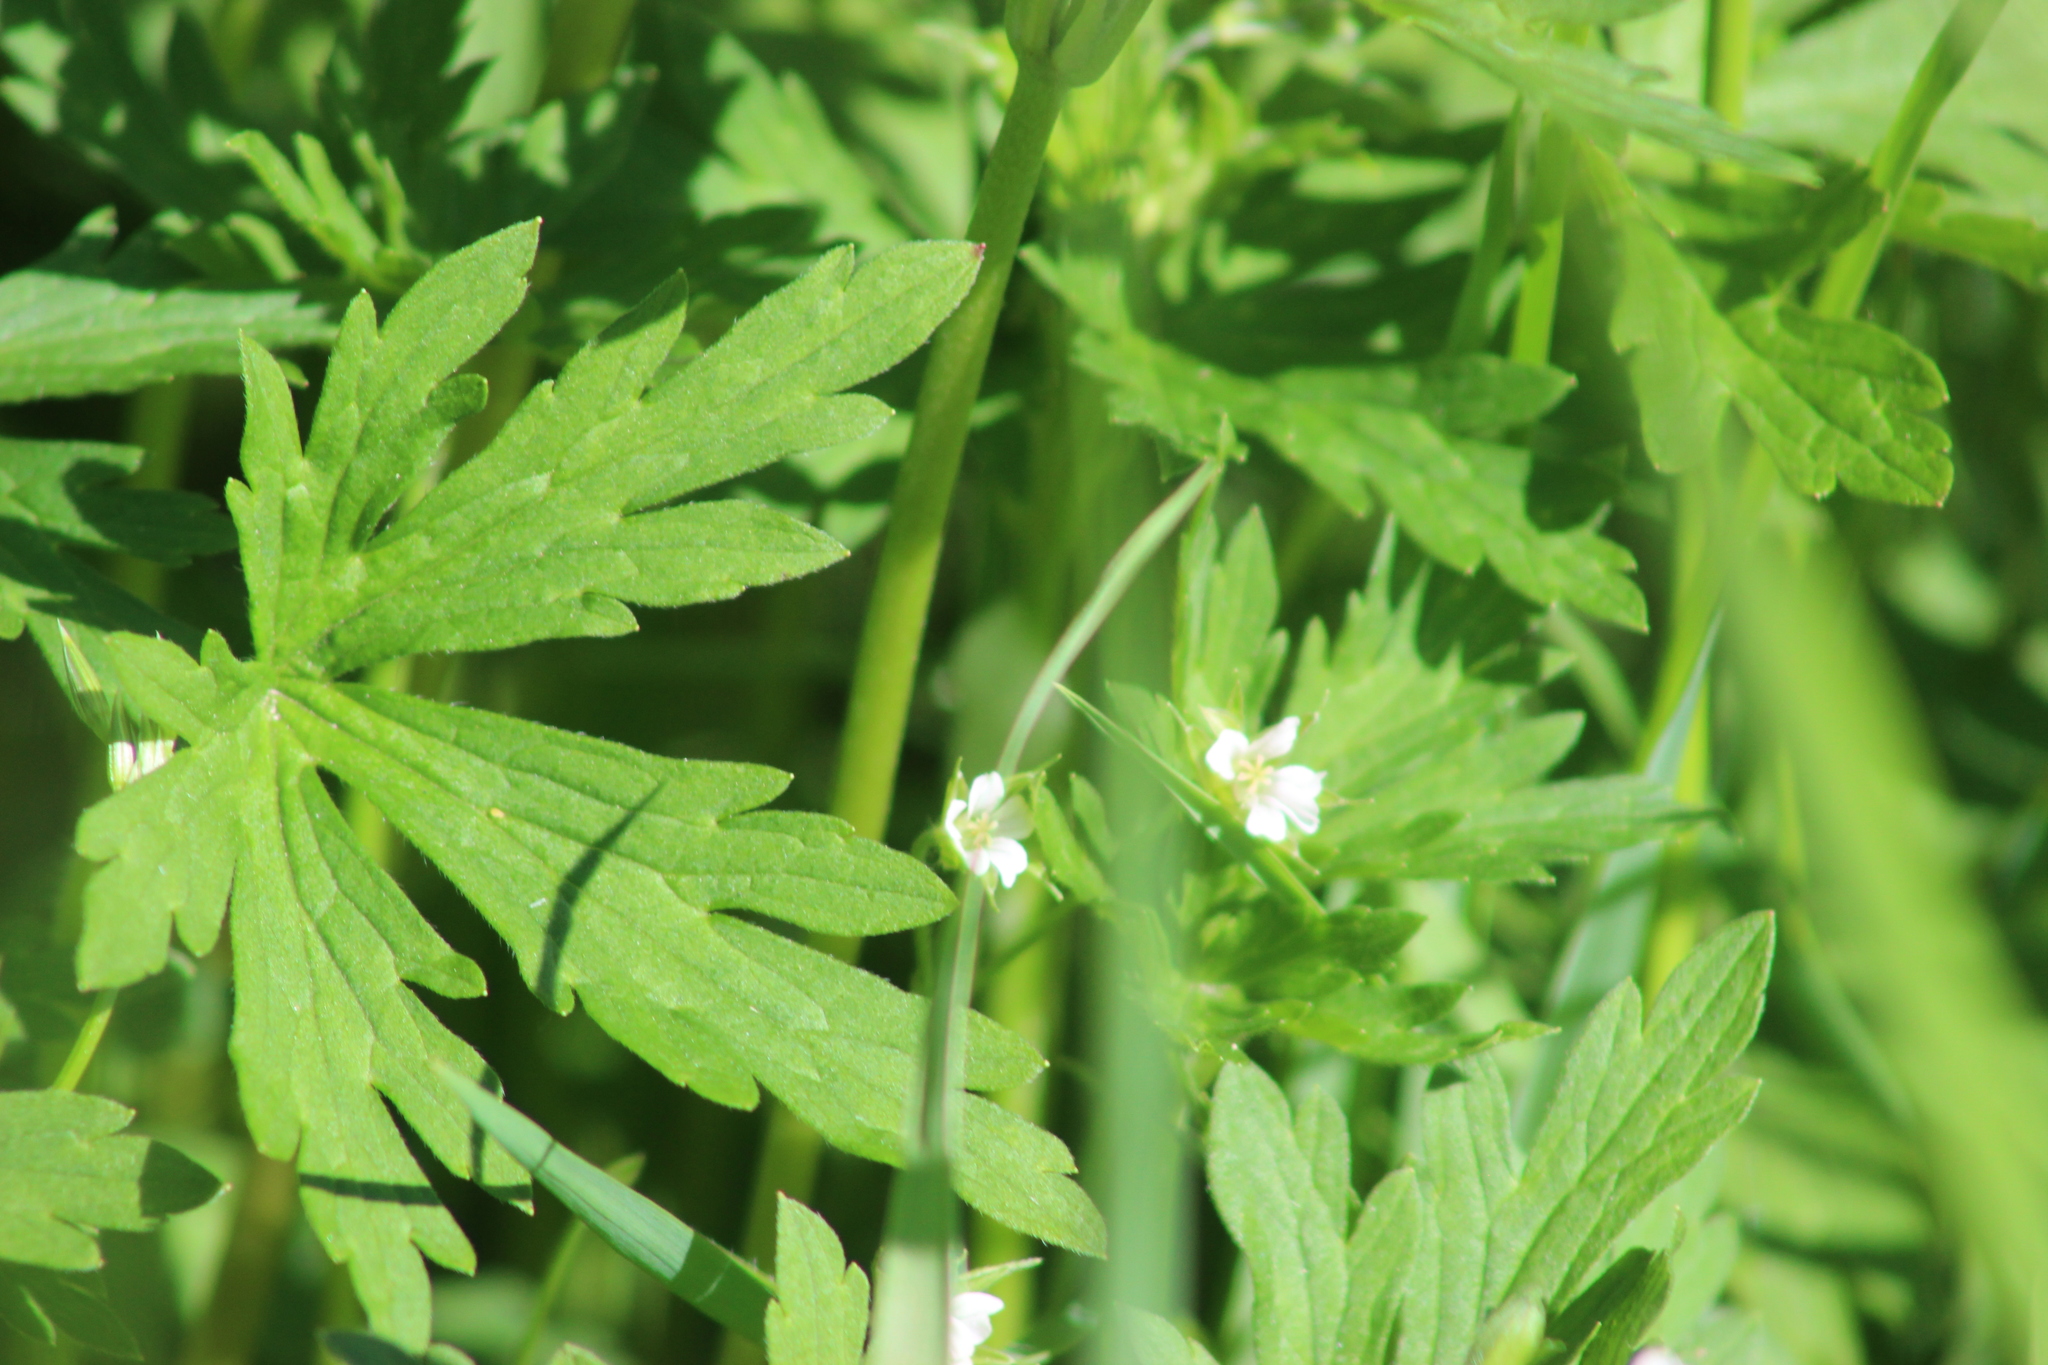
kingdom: Plantae
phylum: Tracheophyta
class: Magnoliopsida
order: Geraniales
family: Geraniaceae
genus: Geranium
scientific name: Geranium sibiricum
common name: Siberian crane's-bill
